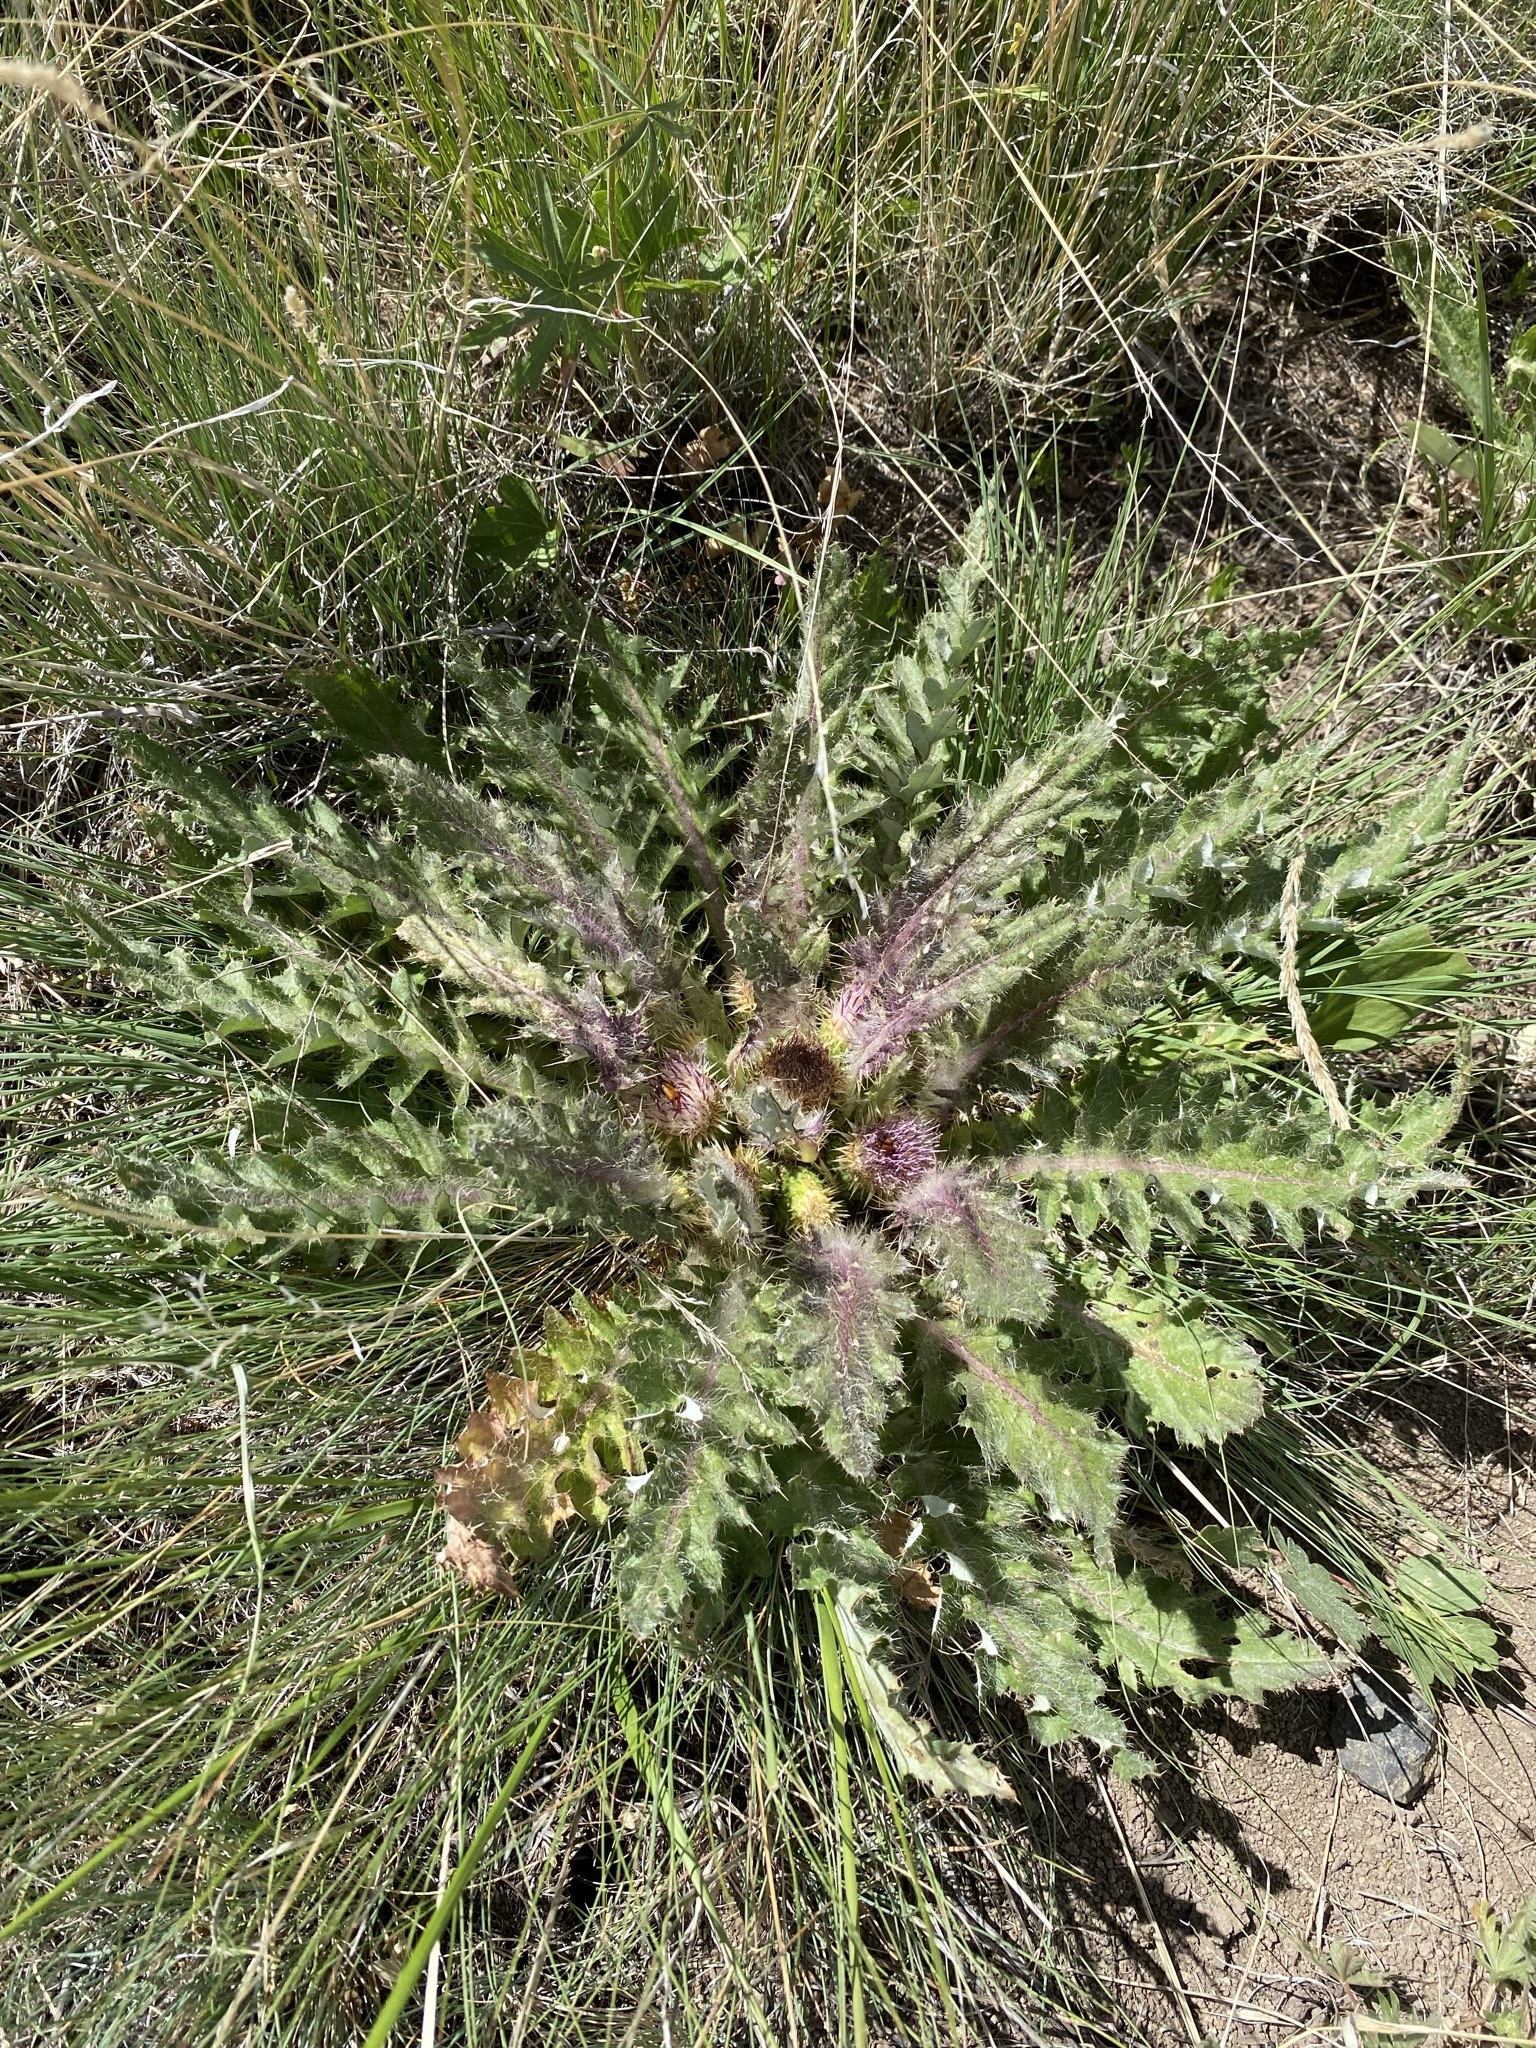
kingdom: Plantae
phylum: Tracheophyta
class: Magnoliopsida
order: Asterales
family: Asteraceae
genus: Cirsium
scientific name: Cirsium scariosum
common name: Meadow thistle
